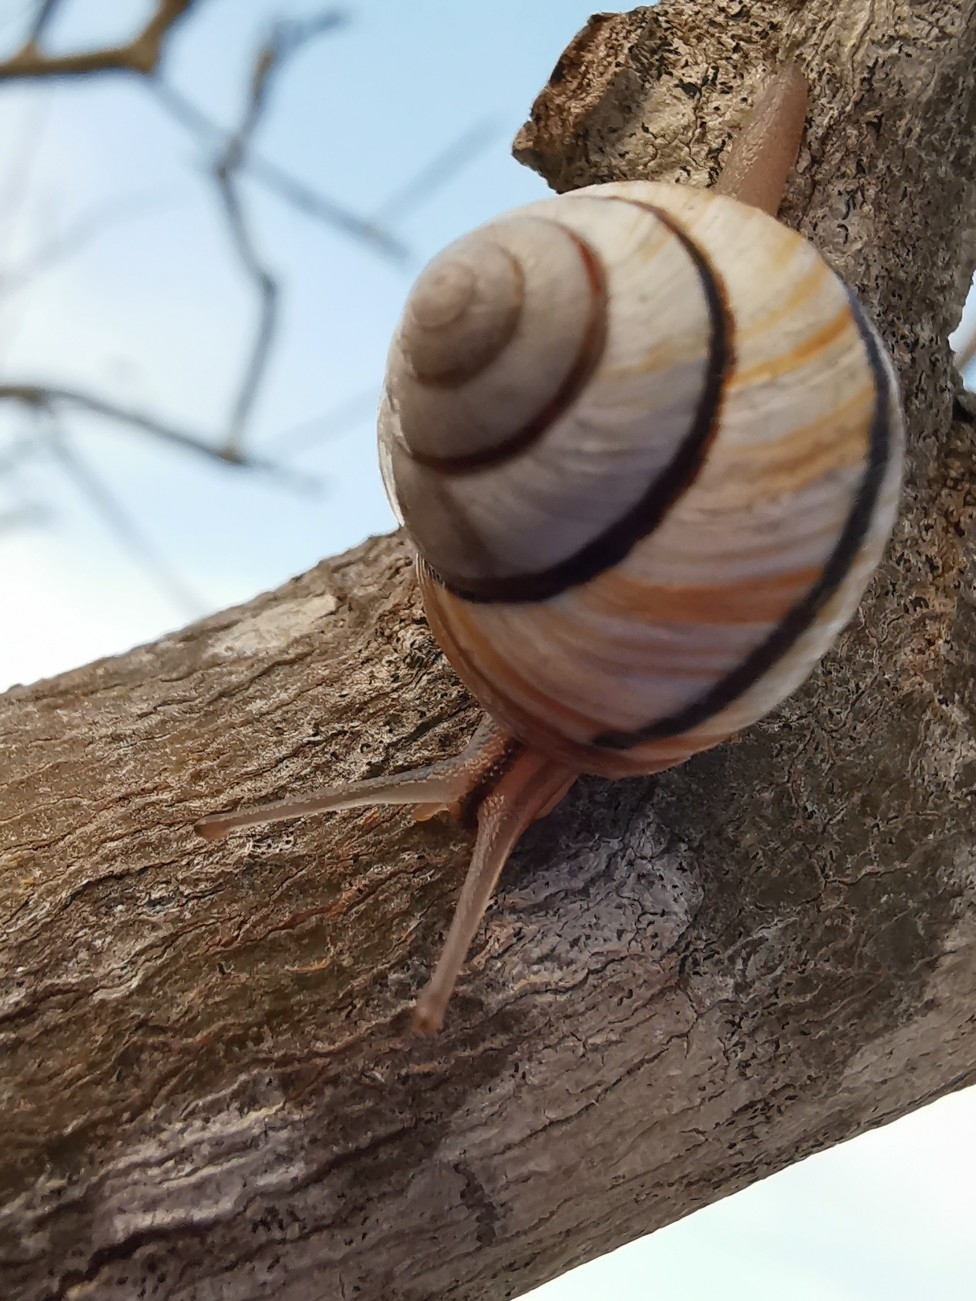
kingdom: Animalia
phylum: Mollusca
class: Gastropoda
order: Stylommatophora
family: Cepolidae
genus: Hemitrochus
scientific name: Hemitrochus varians
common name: Caribbean land snail
